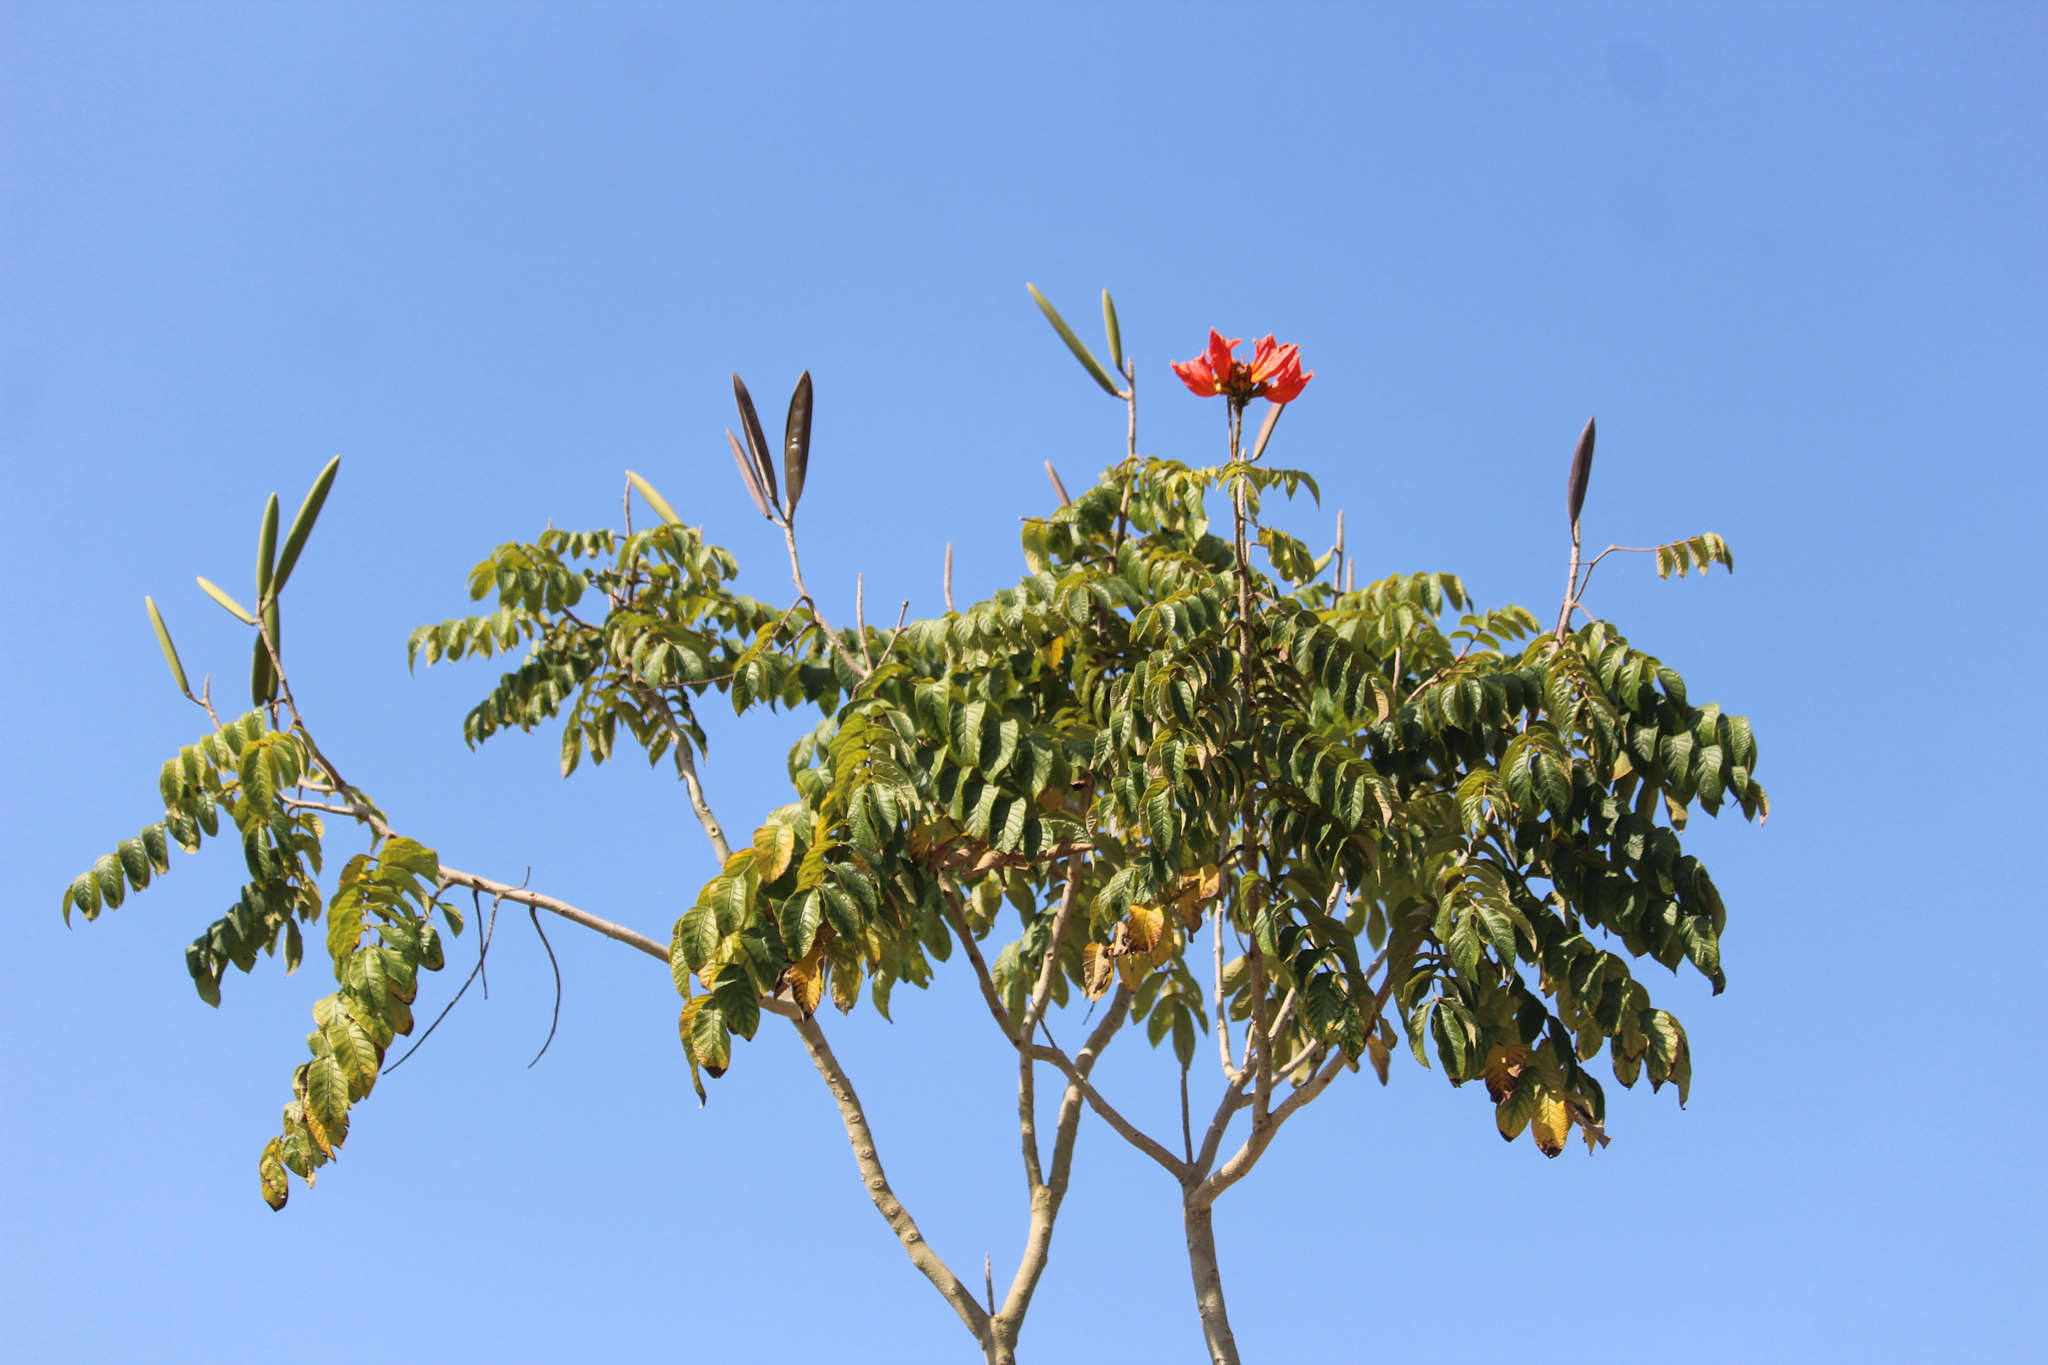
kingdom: Plantae
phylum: Tracheophyta
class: Magnoliopsida
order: Lamiales
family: Bignoniaceae
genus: Spathodea
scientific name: Spathodea campanulata
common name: African tuliptree
